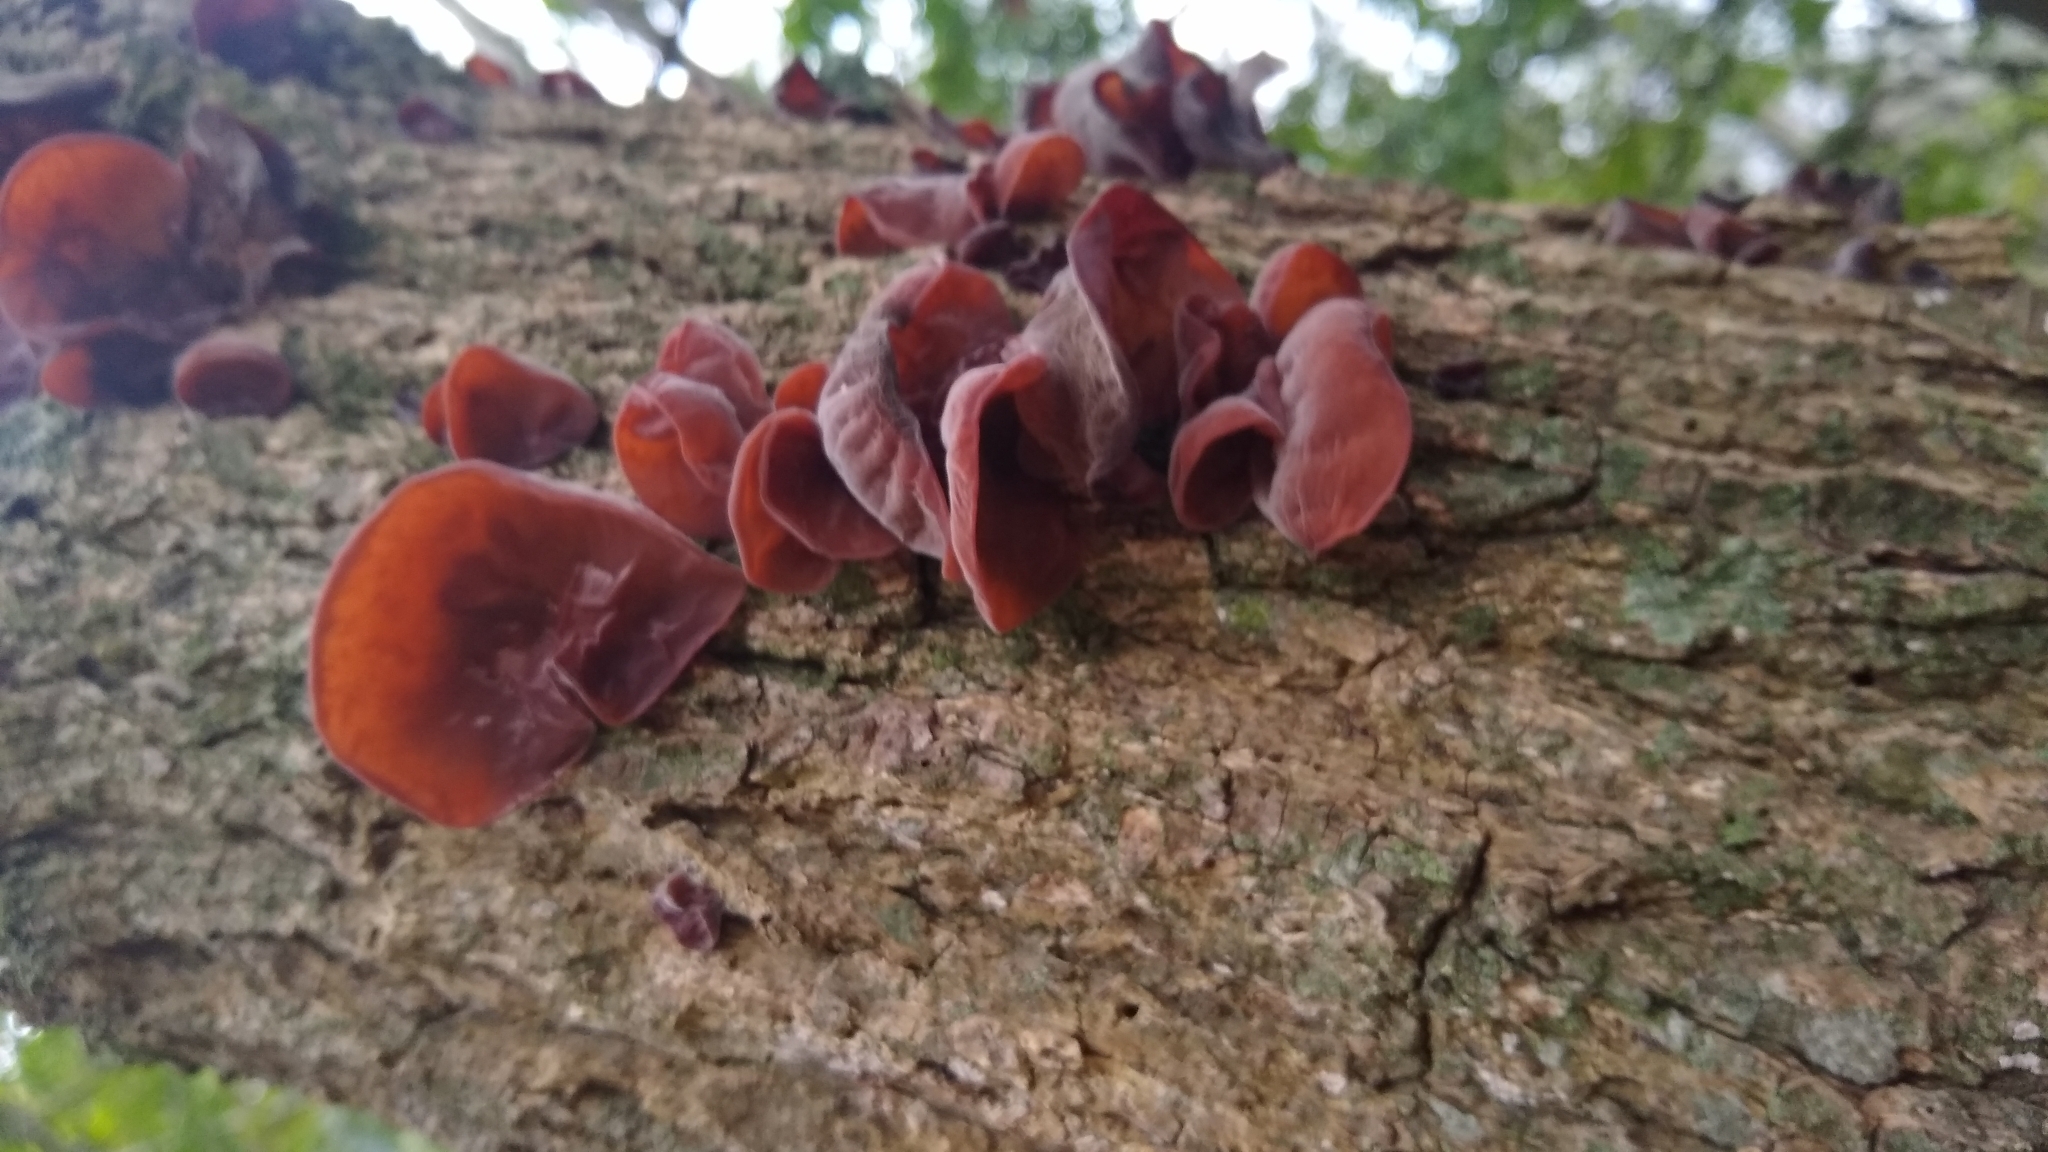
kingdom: Fungi
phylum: Basidiomycota
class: Agaricomycetes
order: Auriculariales
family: Auriculariaceae
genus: Auricularia
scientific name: Auricularia fuscosuccinea
